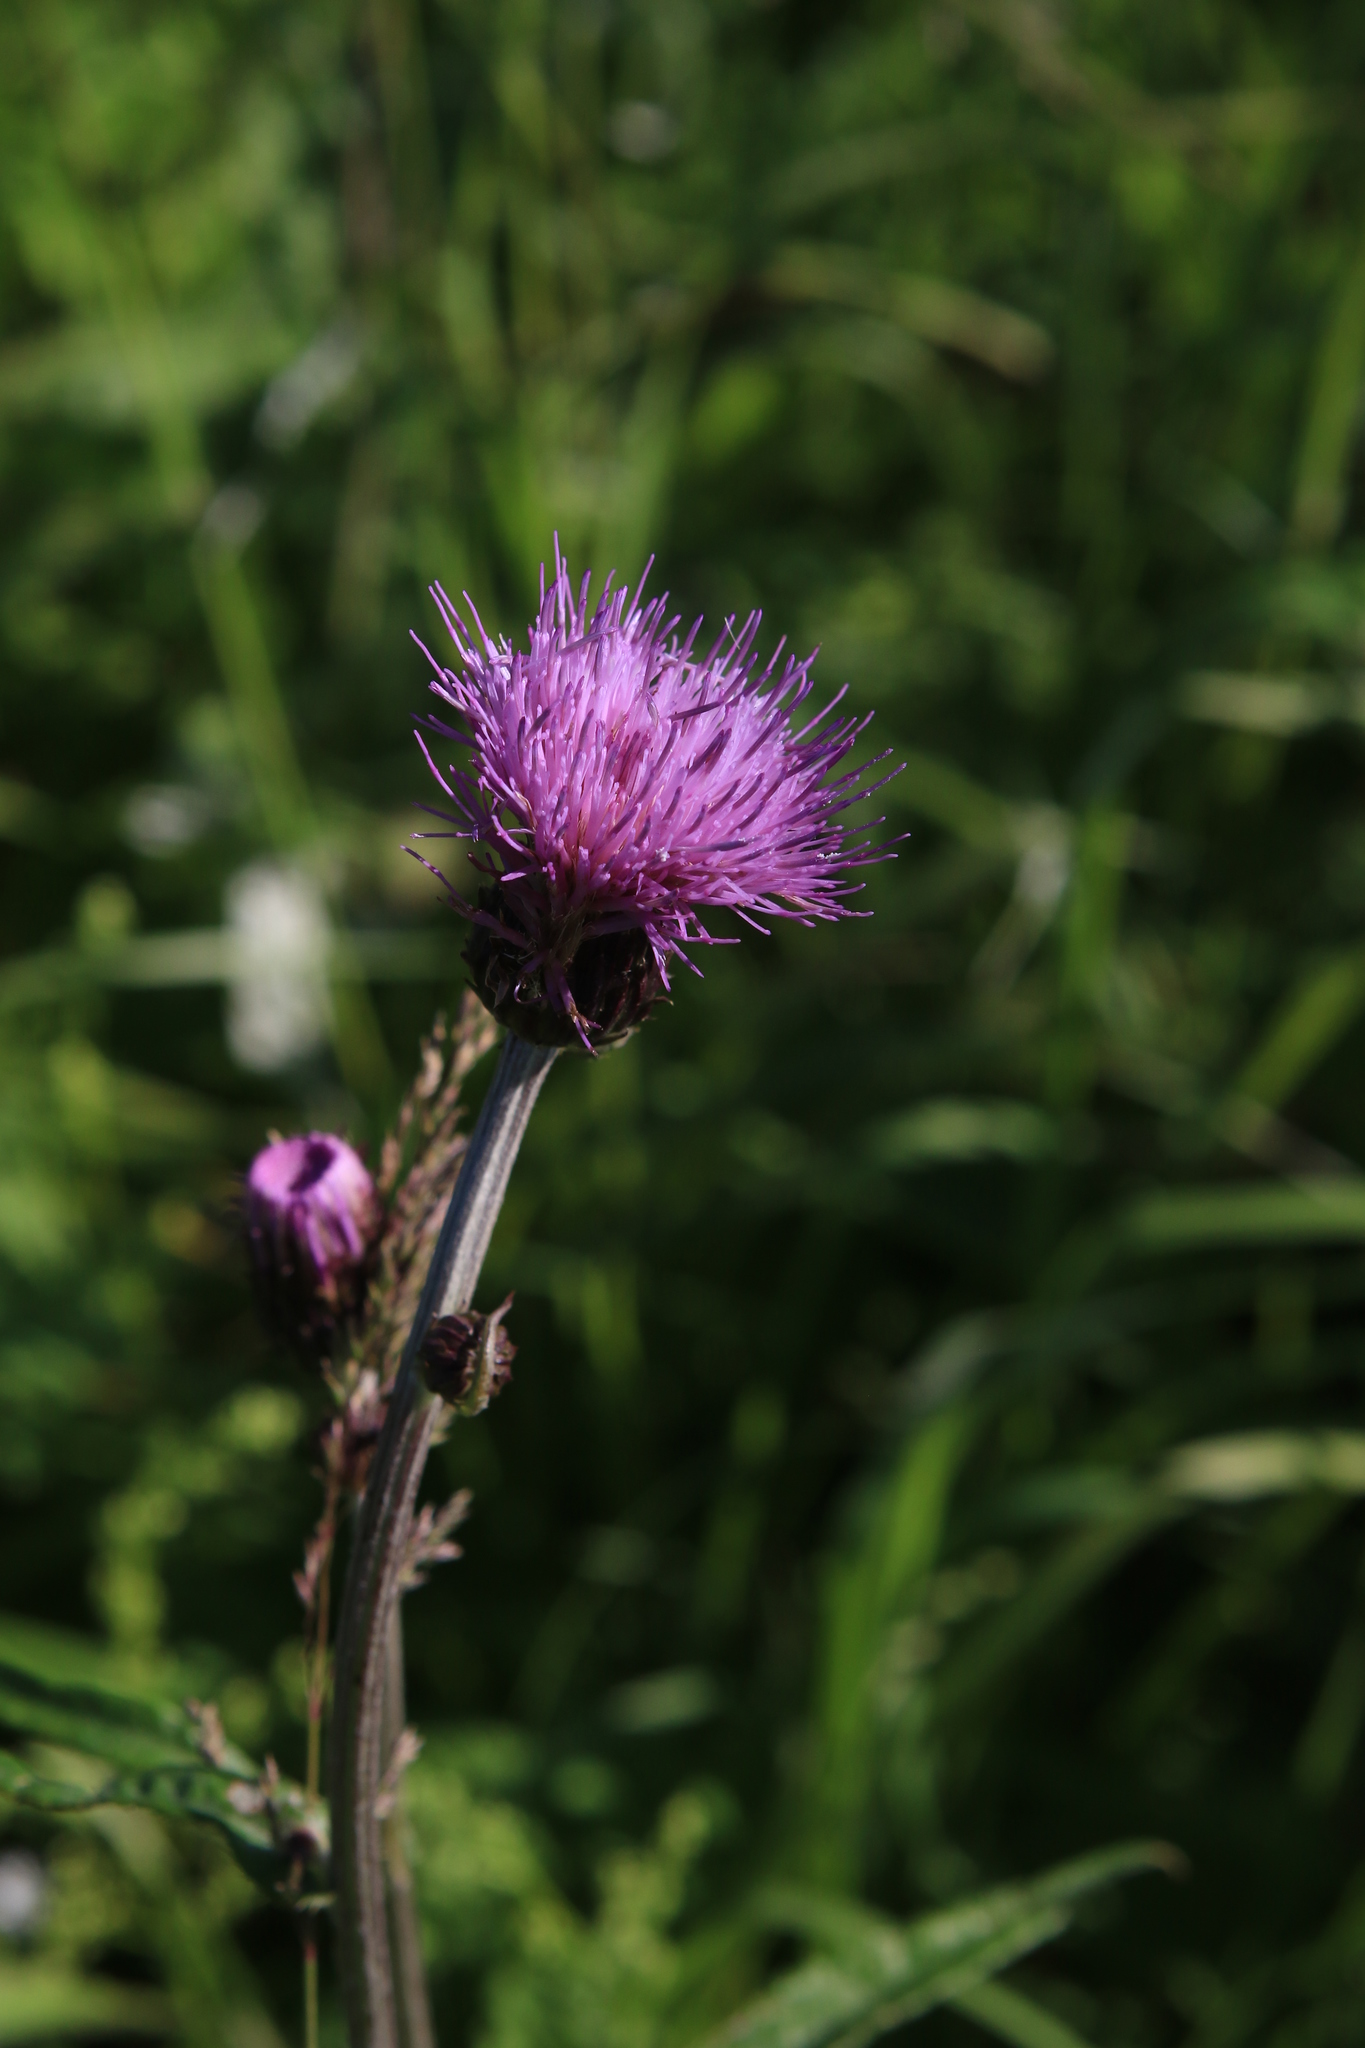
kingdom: Plantae
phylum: Tracheophyta
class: Magnoliopsida
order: Asterales
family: Asteraceae
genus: Cirsium
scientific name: Cirsium heterophyllum
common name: Melancholy thistle
